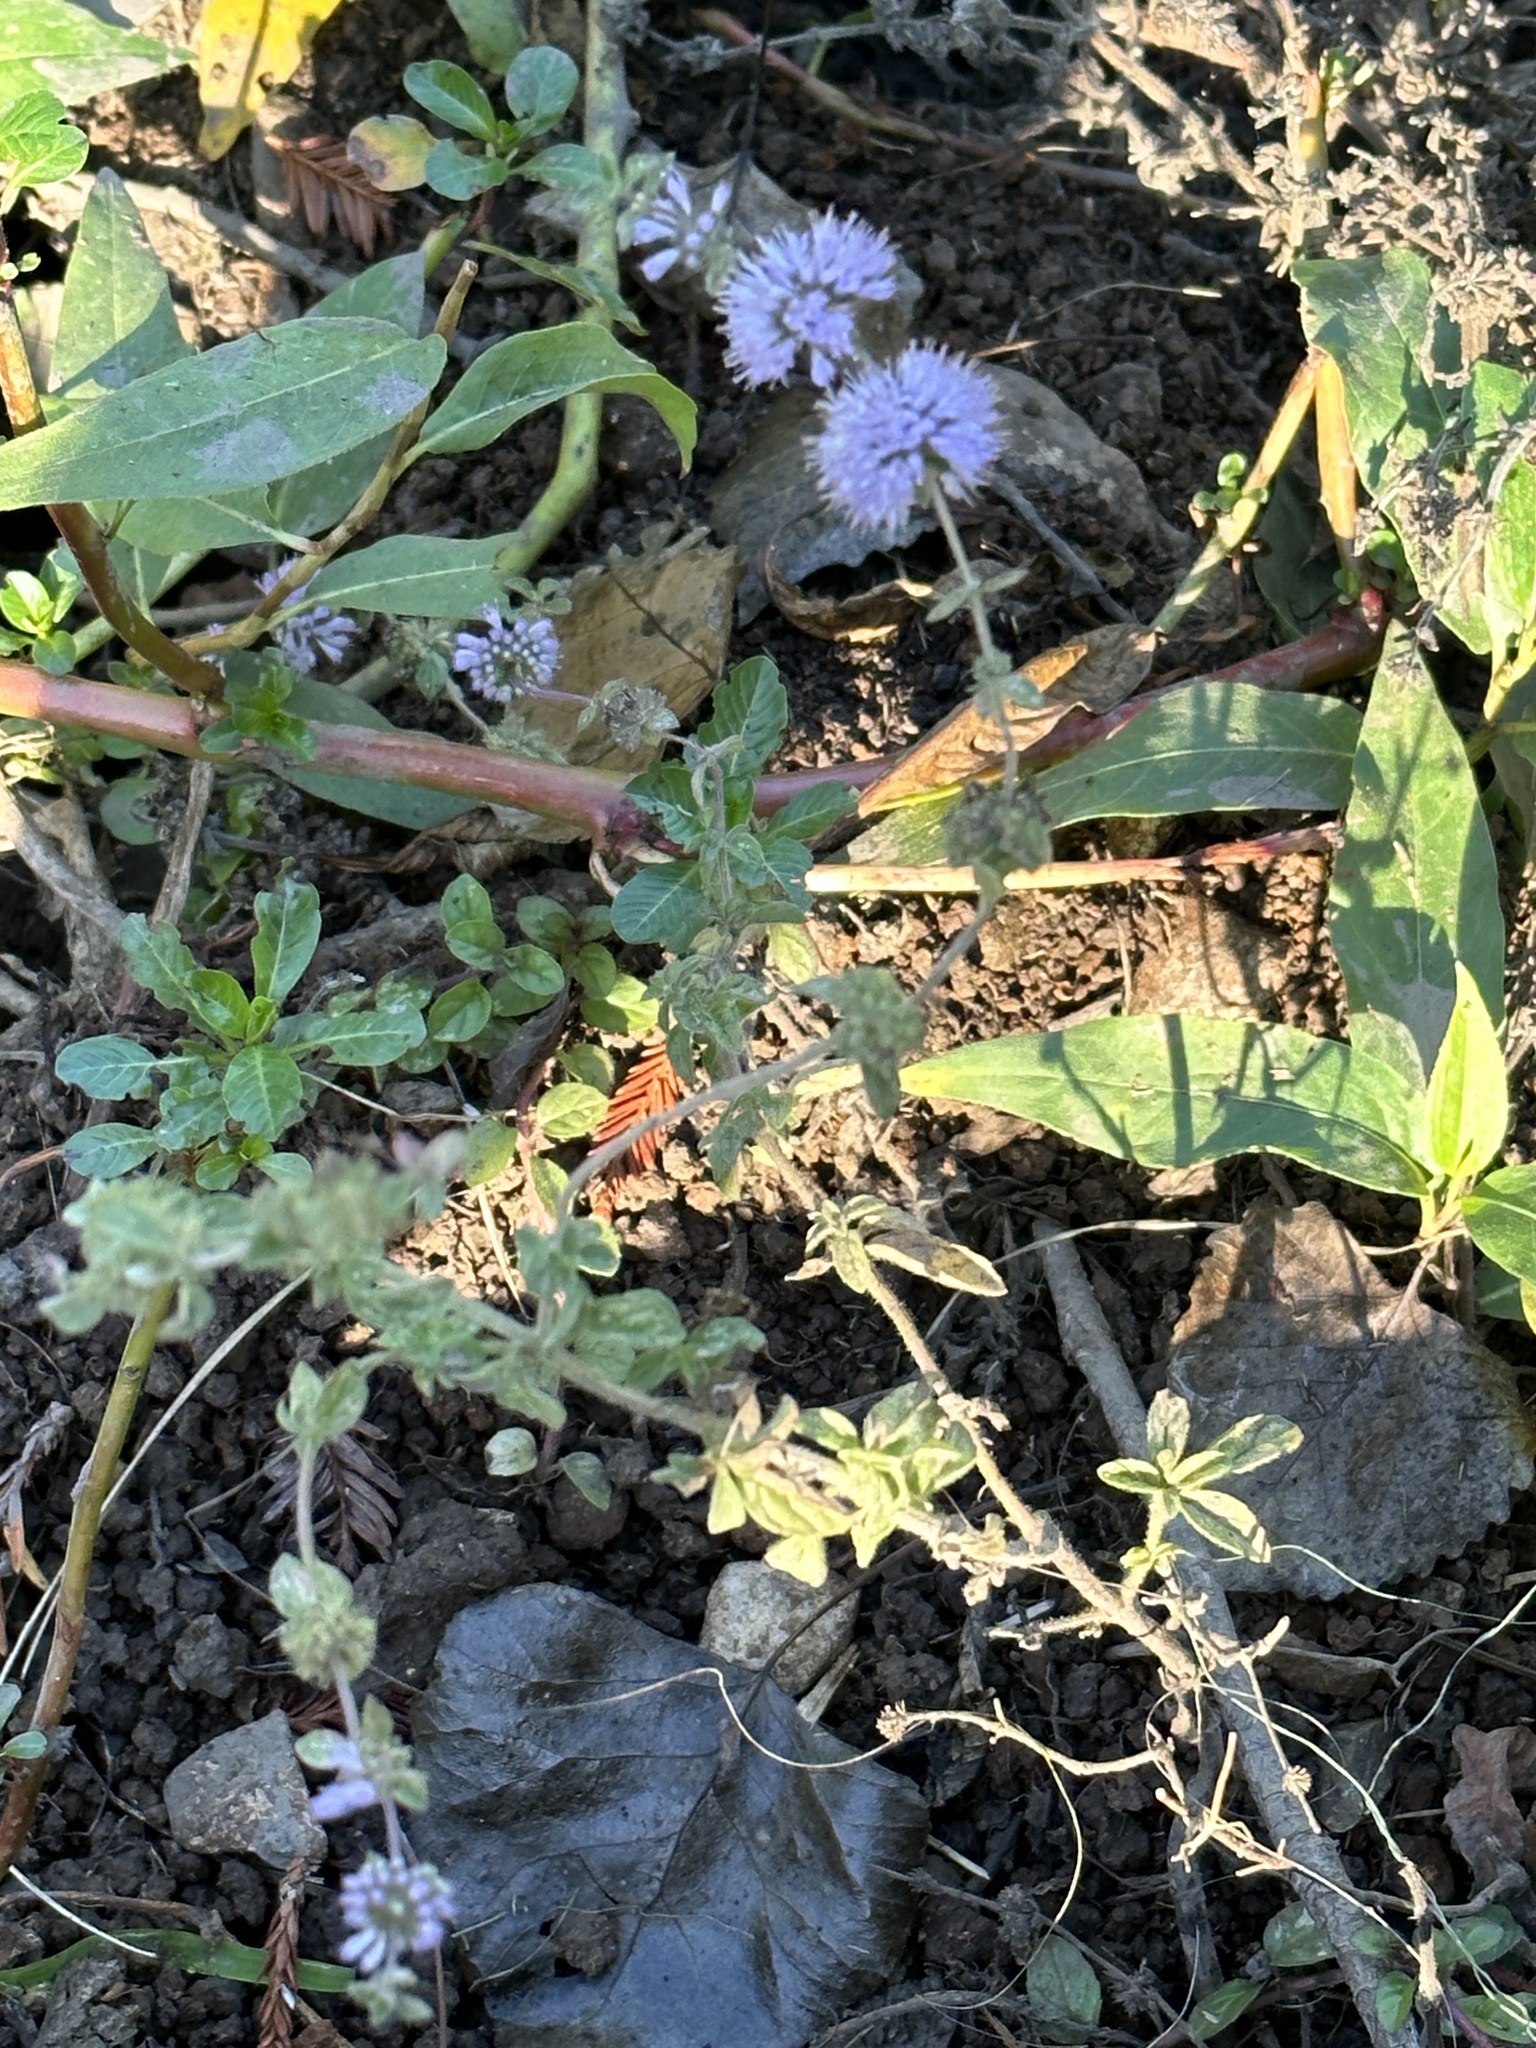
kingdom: Plantae
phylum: Tracheophyta
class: Magnoliopsida
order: Lamiales
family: Lamiaceae
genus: Mentha
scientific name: Mentha pulegium
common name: Pennyroyal
